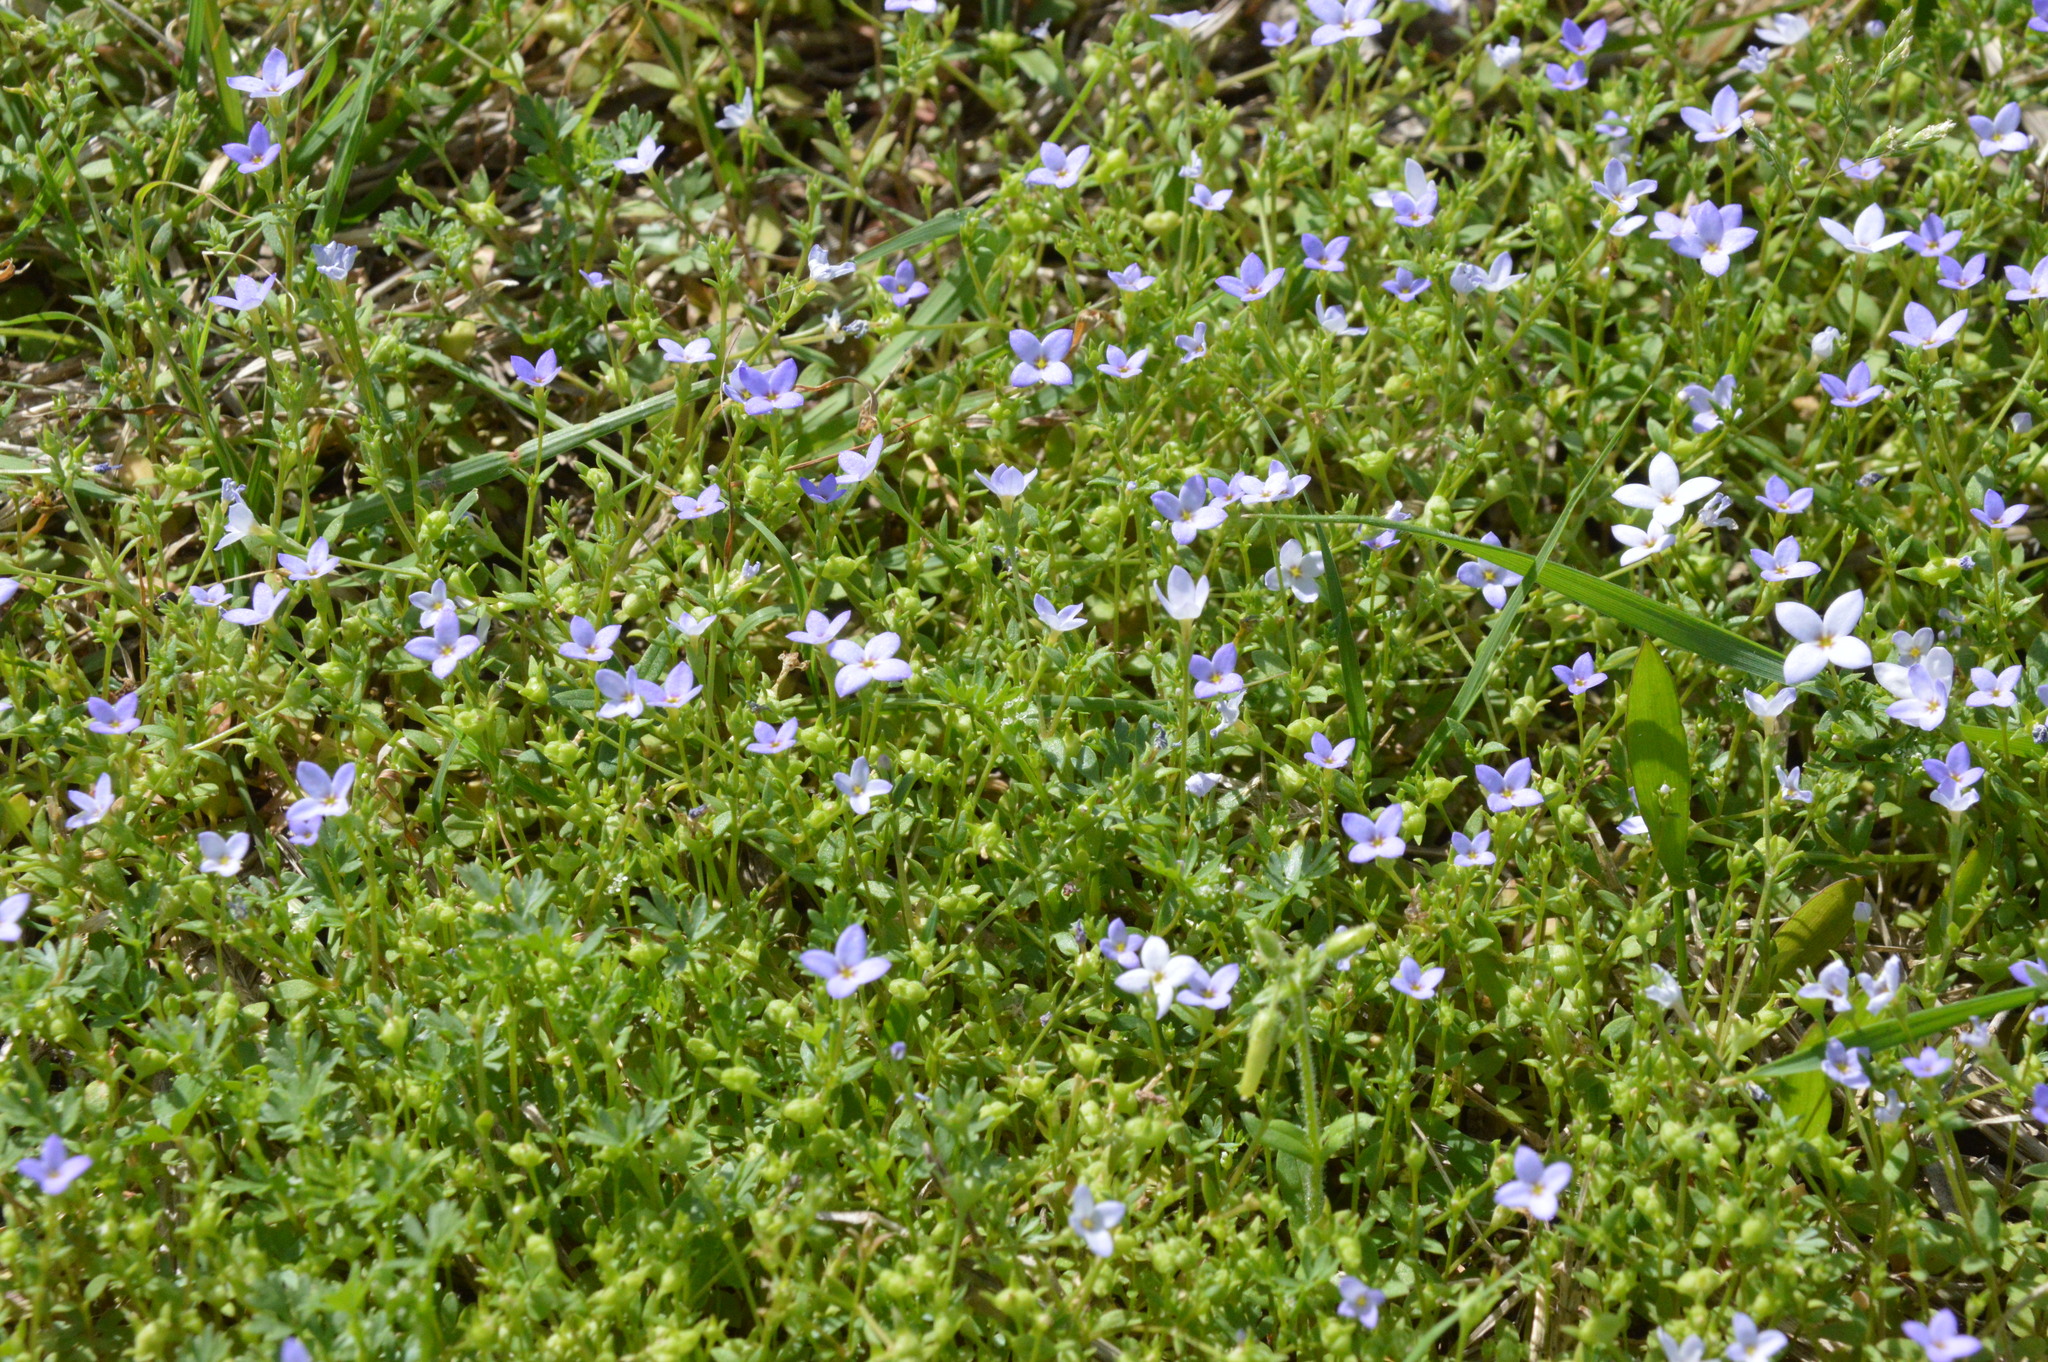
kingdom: Plantae
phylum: Tracheophyta
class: Magnoliopsida
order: Gentianales
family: Rubiaceae
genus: Houstonia
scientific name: Houstonia pusilla
